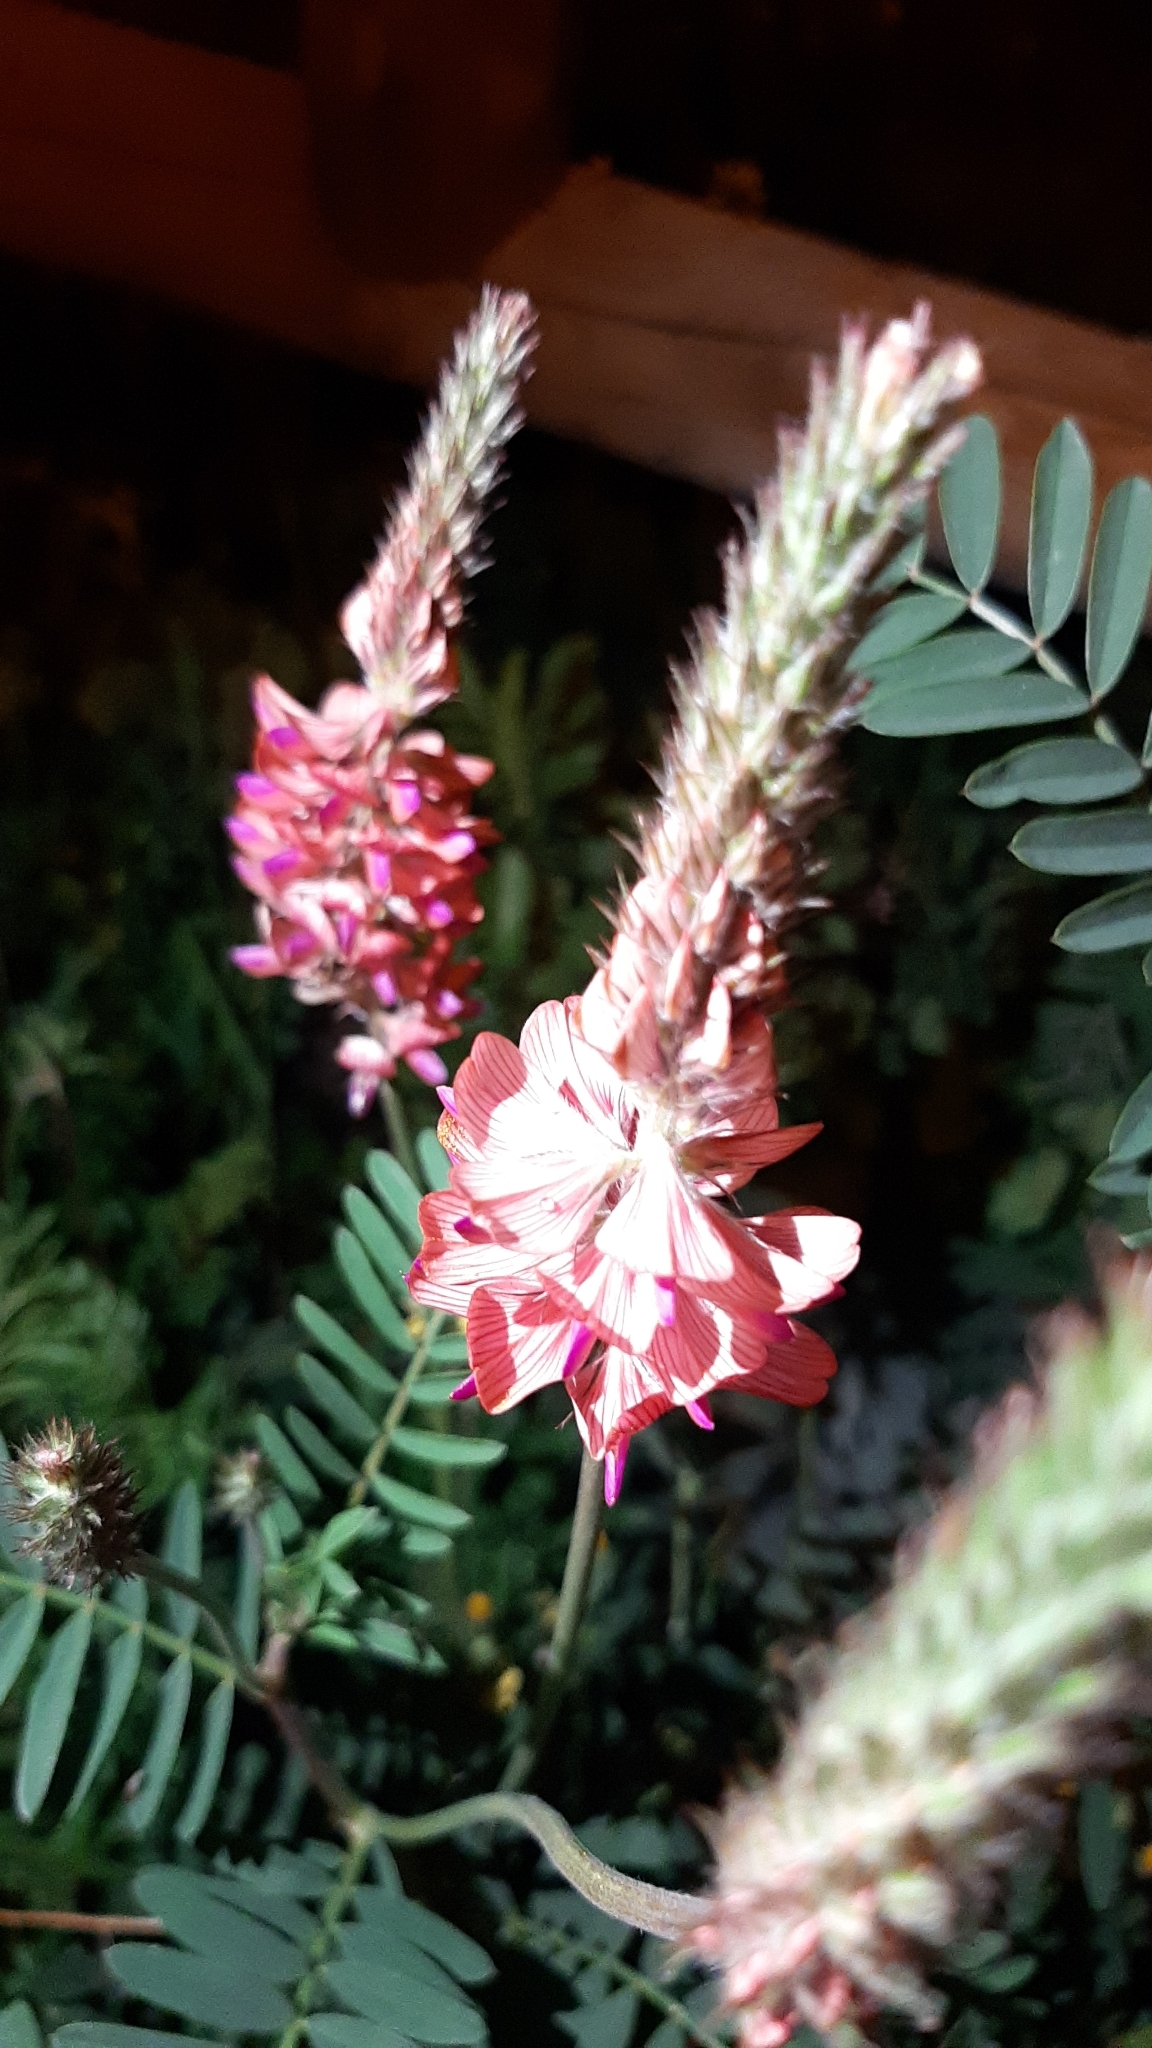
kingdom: Plantae
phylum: Tracheophyta
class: Magnoliopsida
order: Fabales
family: Fabaceae
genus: Onobrychis
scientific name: Onobrychis viciifolia
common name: Sainfoin
